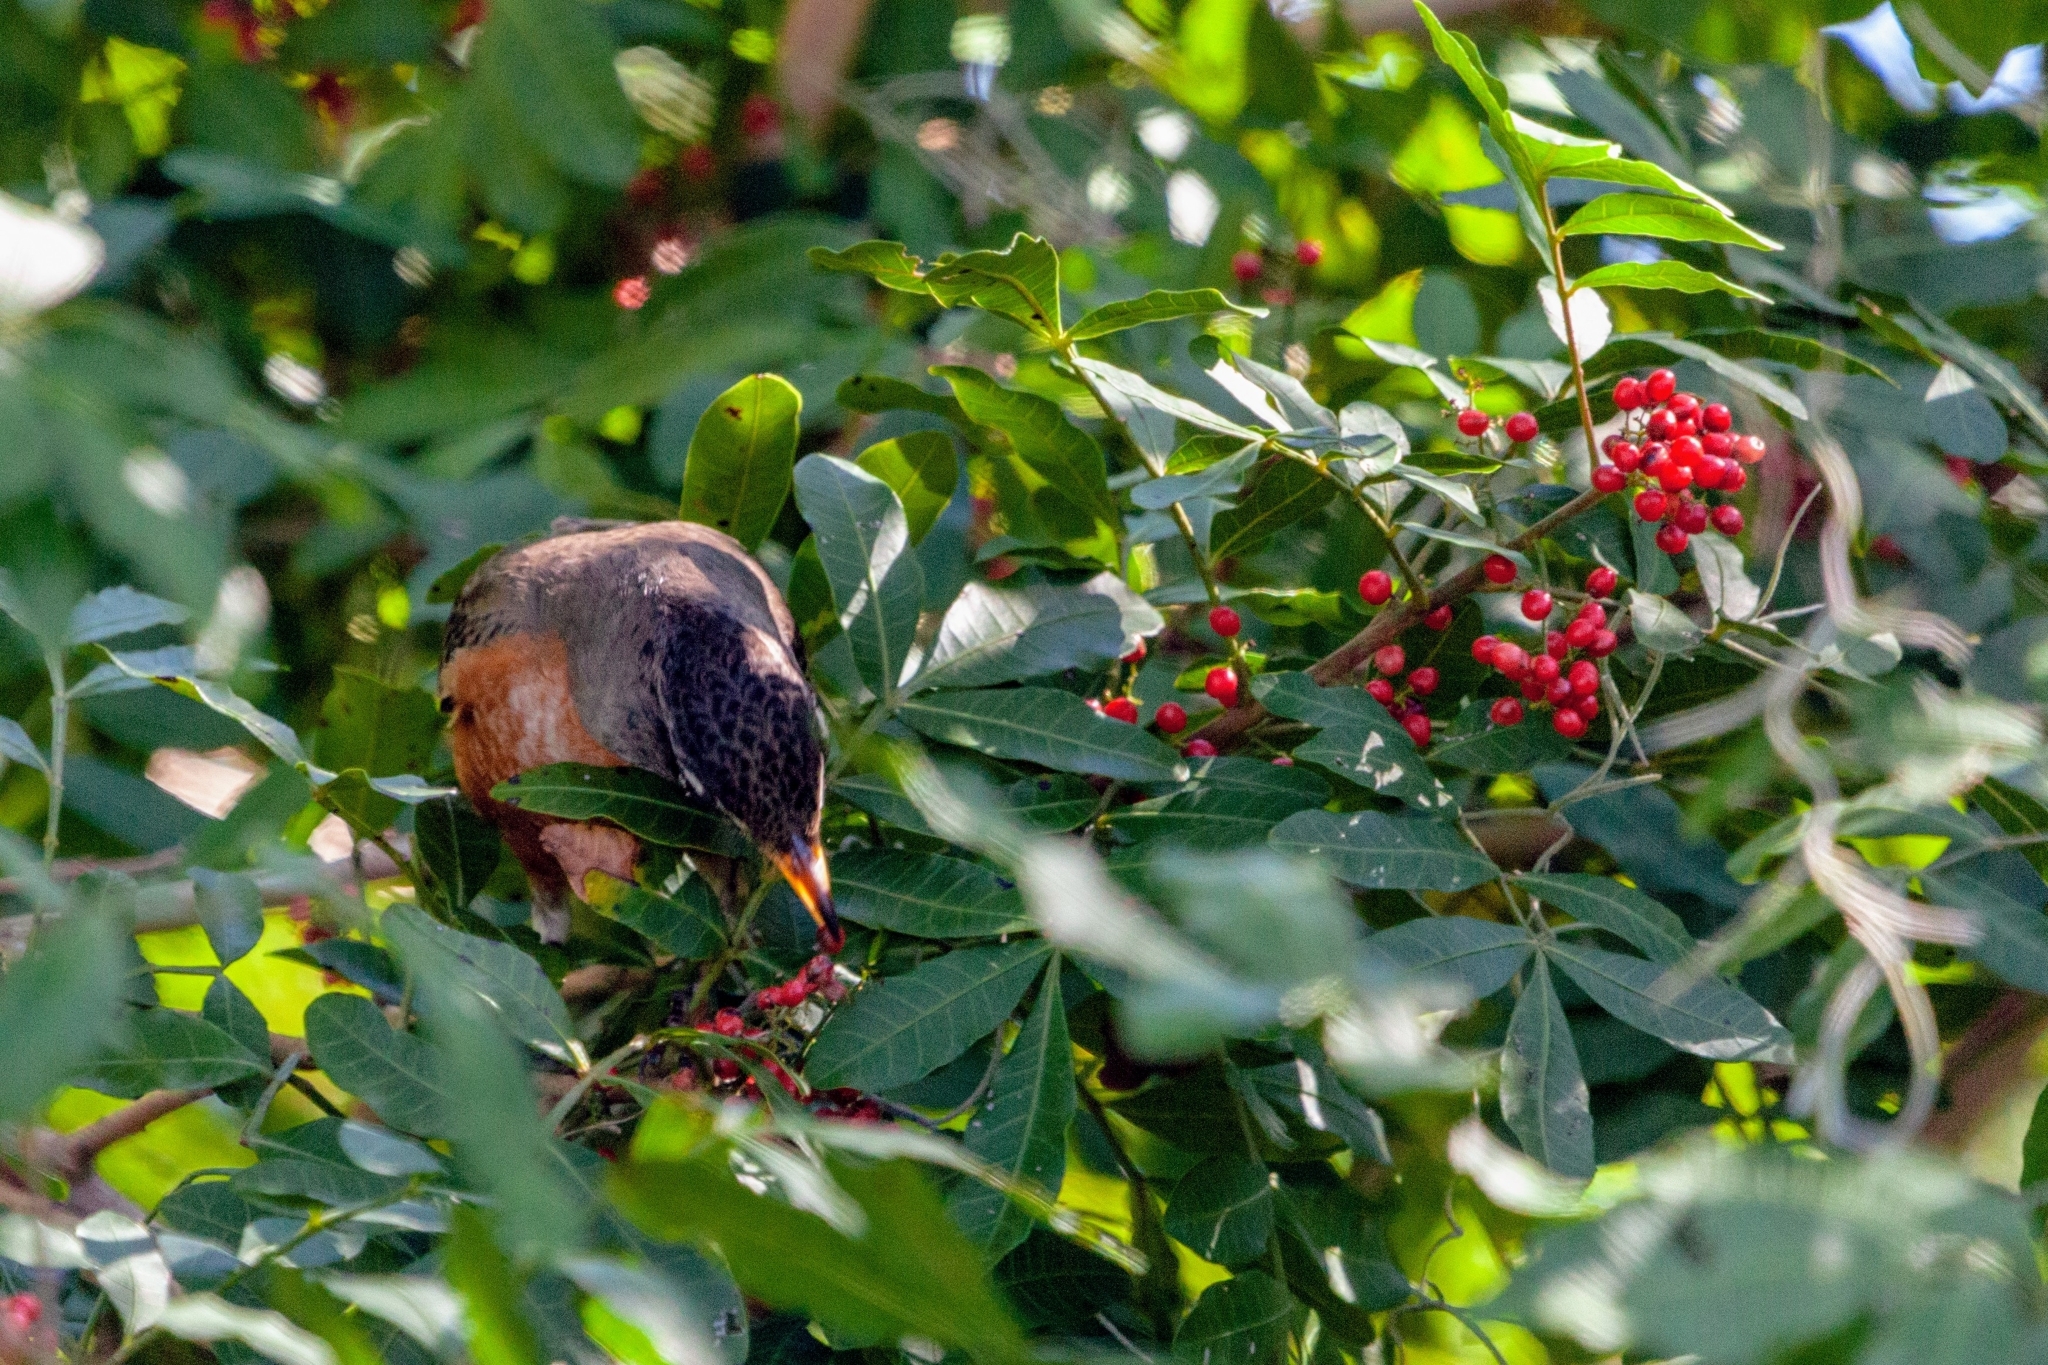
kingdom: Animalia
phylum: Chordata
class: Aves
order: Passeriformes
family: Turdidae
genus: Turdus
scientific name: Turdus migratorius
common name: American robin
